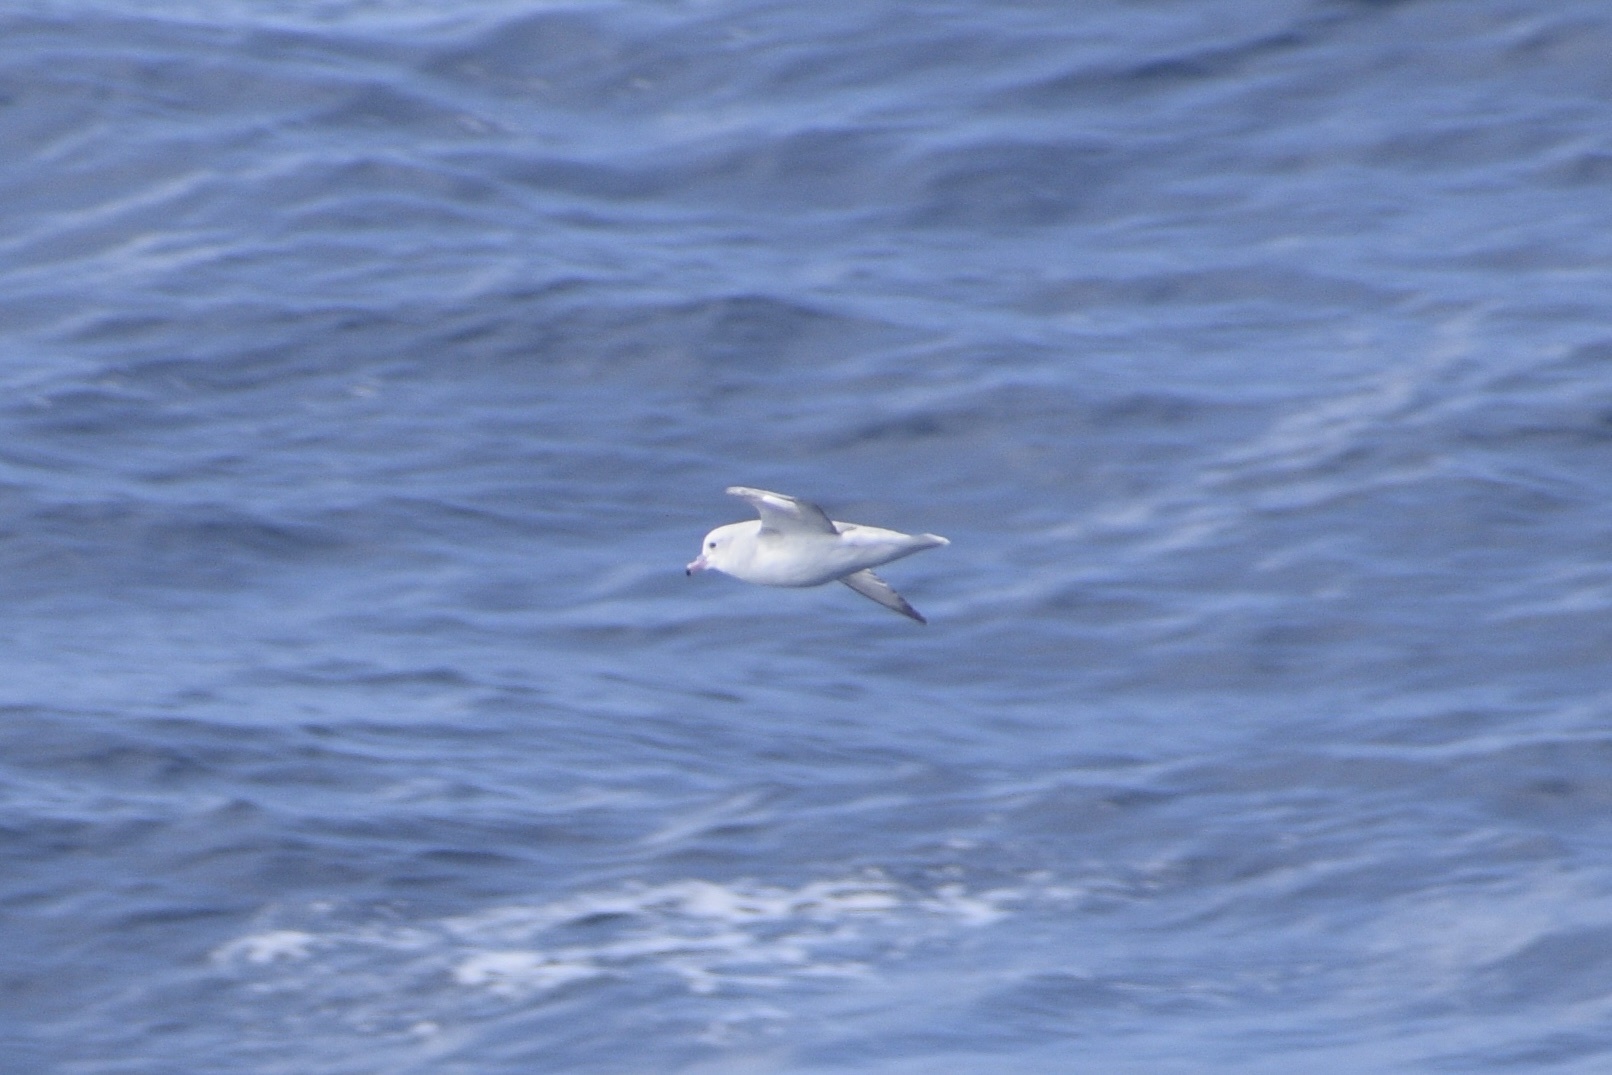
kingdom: Animalia
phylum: Chordata
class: Aves
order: Procellariiformes
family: Procellariidae
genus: Fulmarus
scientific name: Fulmarus glacialoides
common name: Southern fulmar
